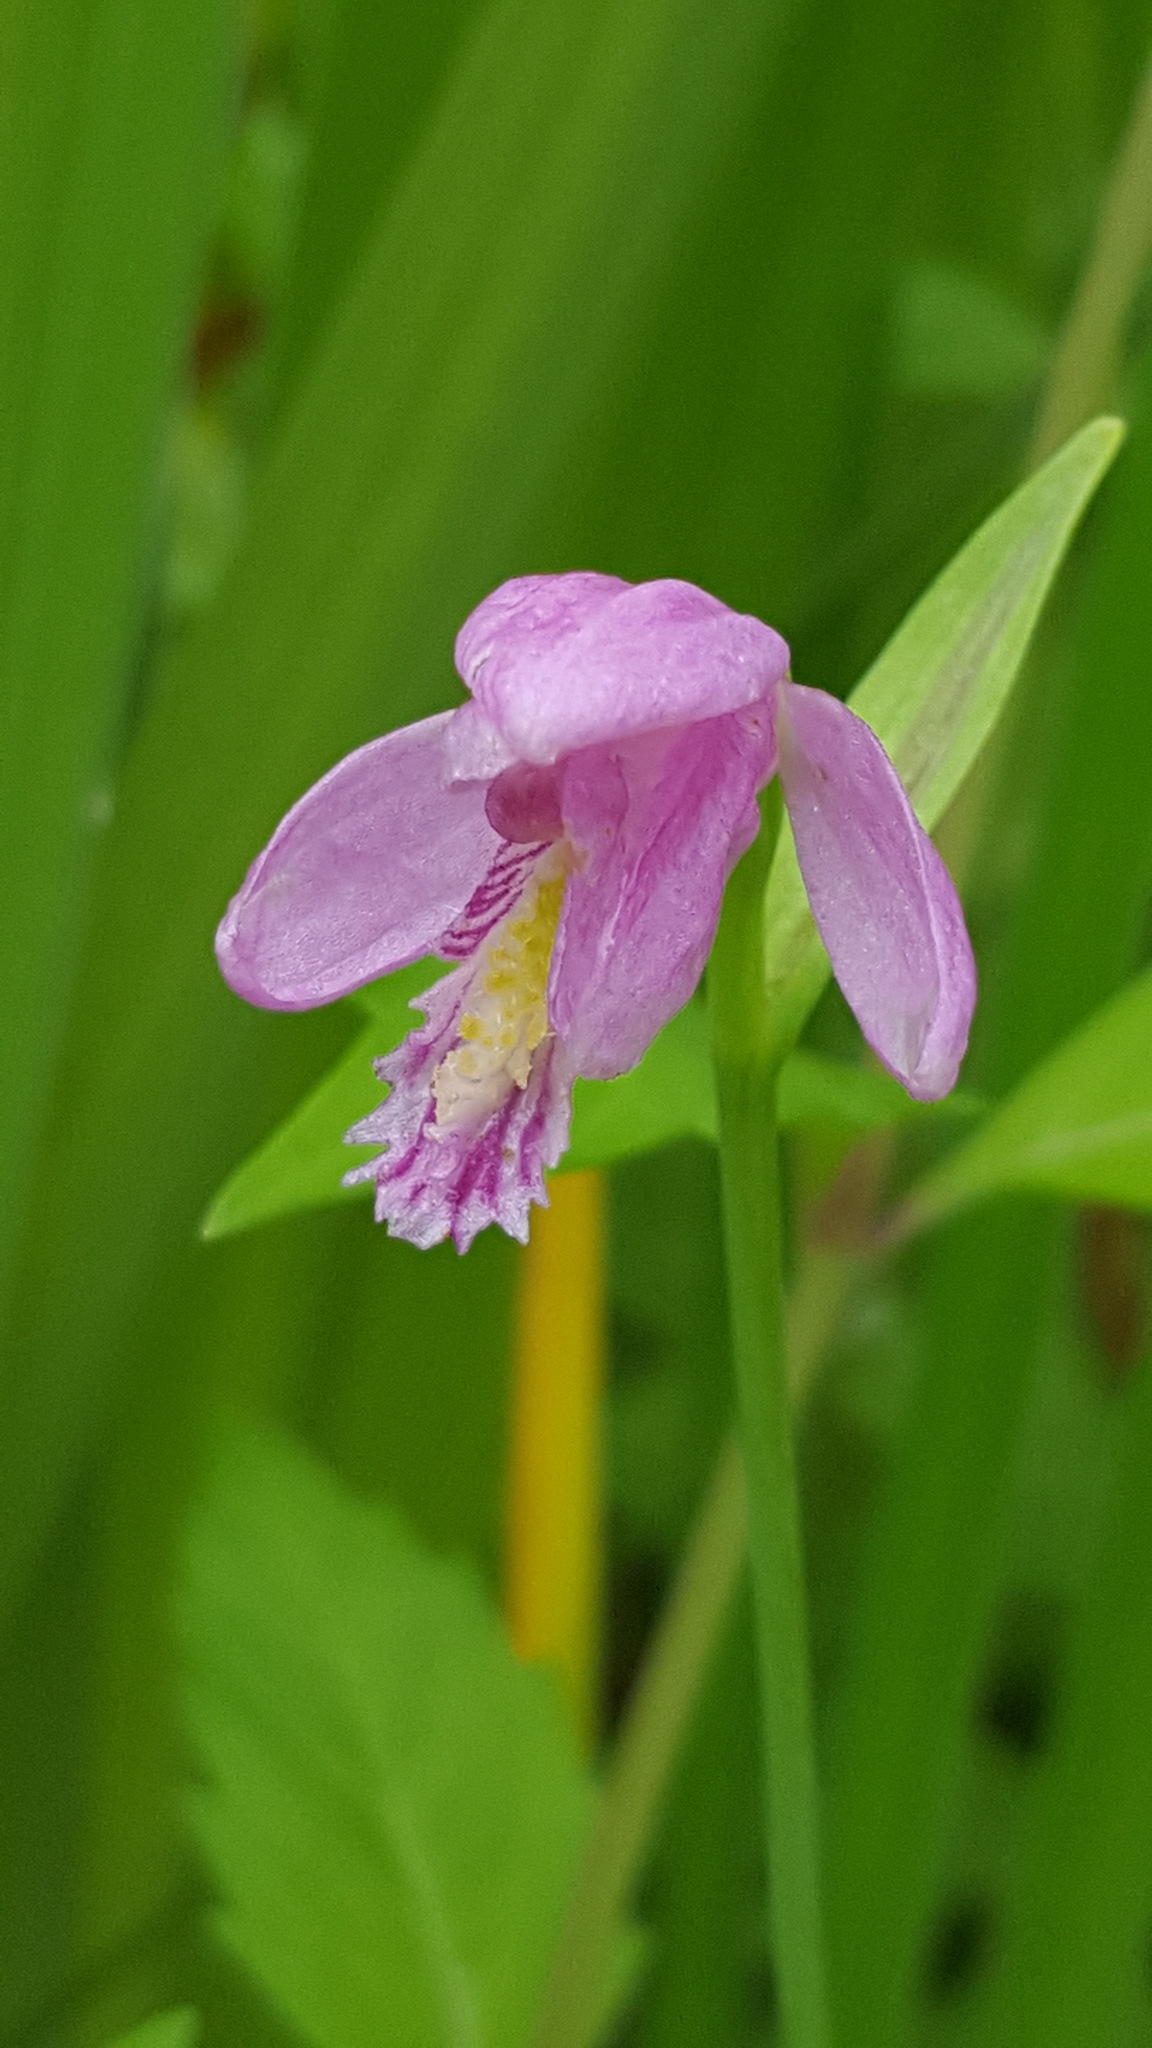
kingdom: Plantae
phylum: Tracheophyta
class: Liliopsida
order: Asparagales
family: Orchidaceae
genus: Pogonia
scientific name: Pogonia ophioglossoides
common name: Rose pogonia
